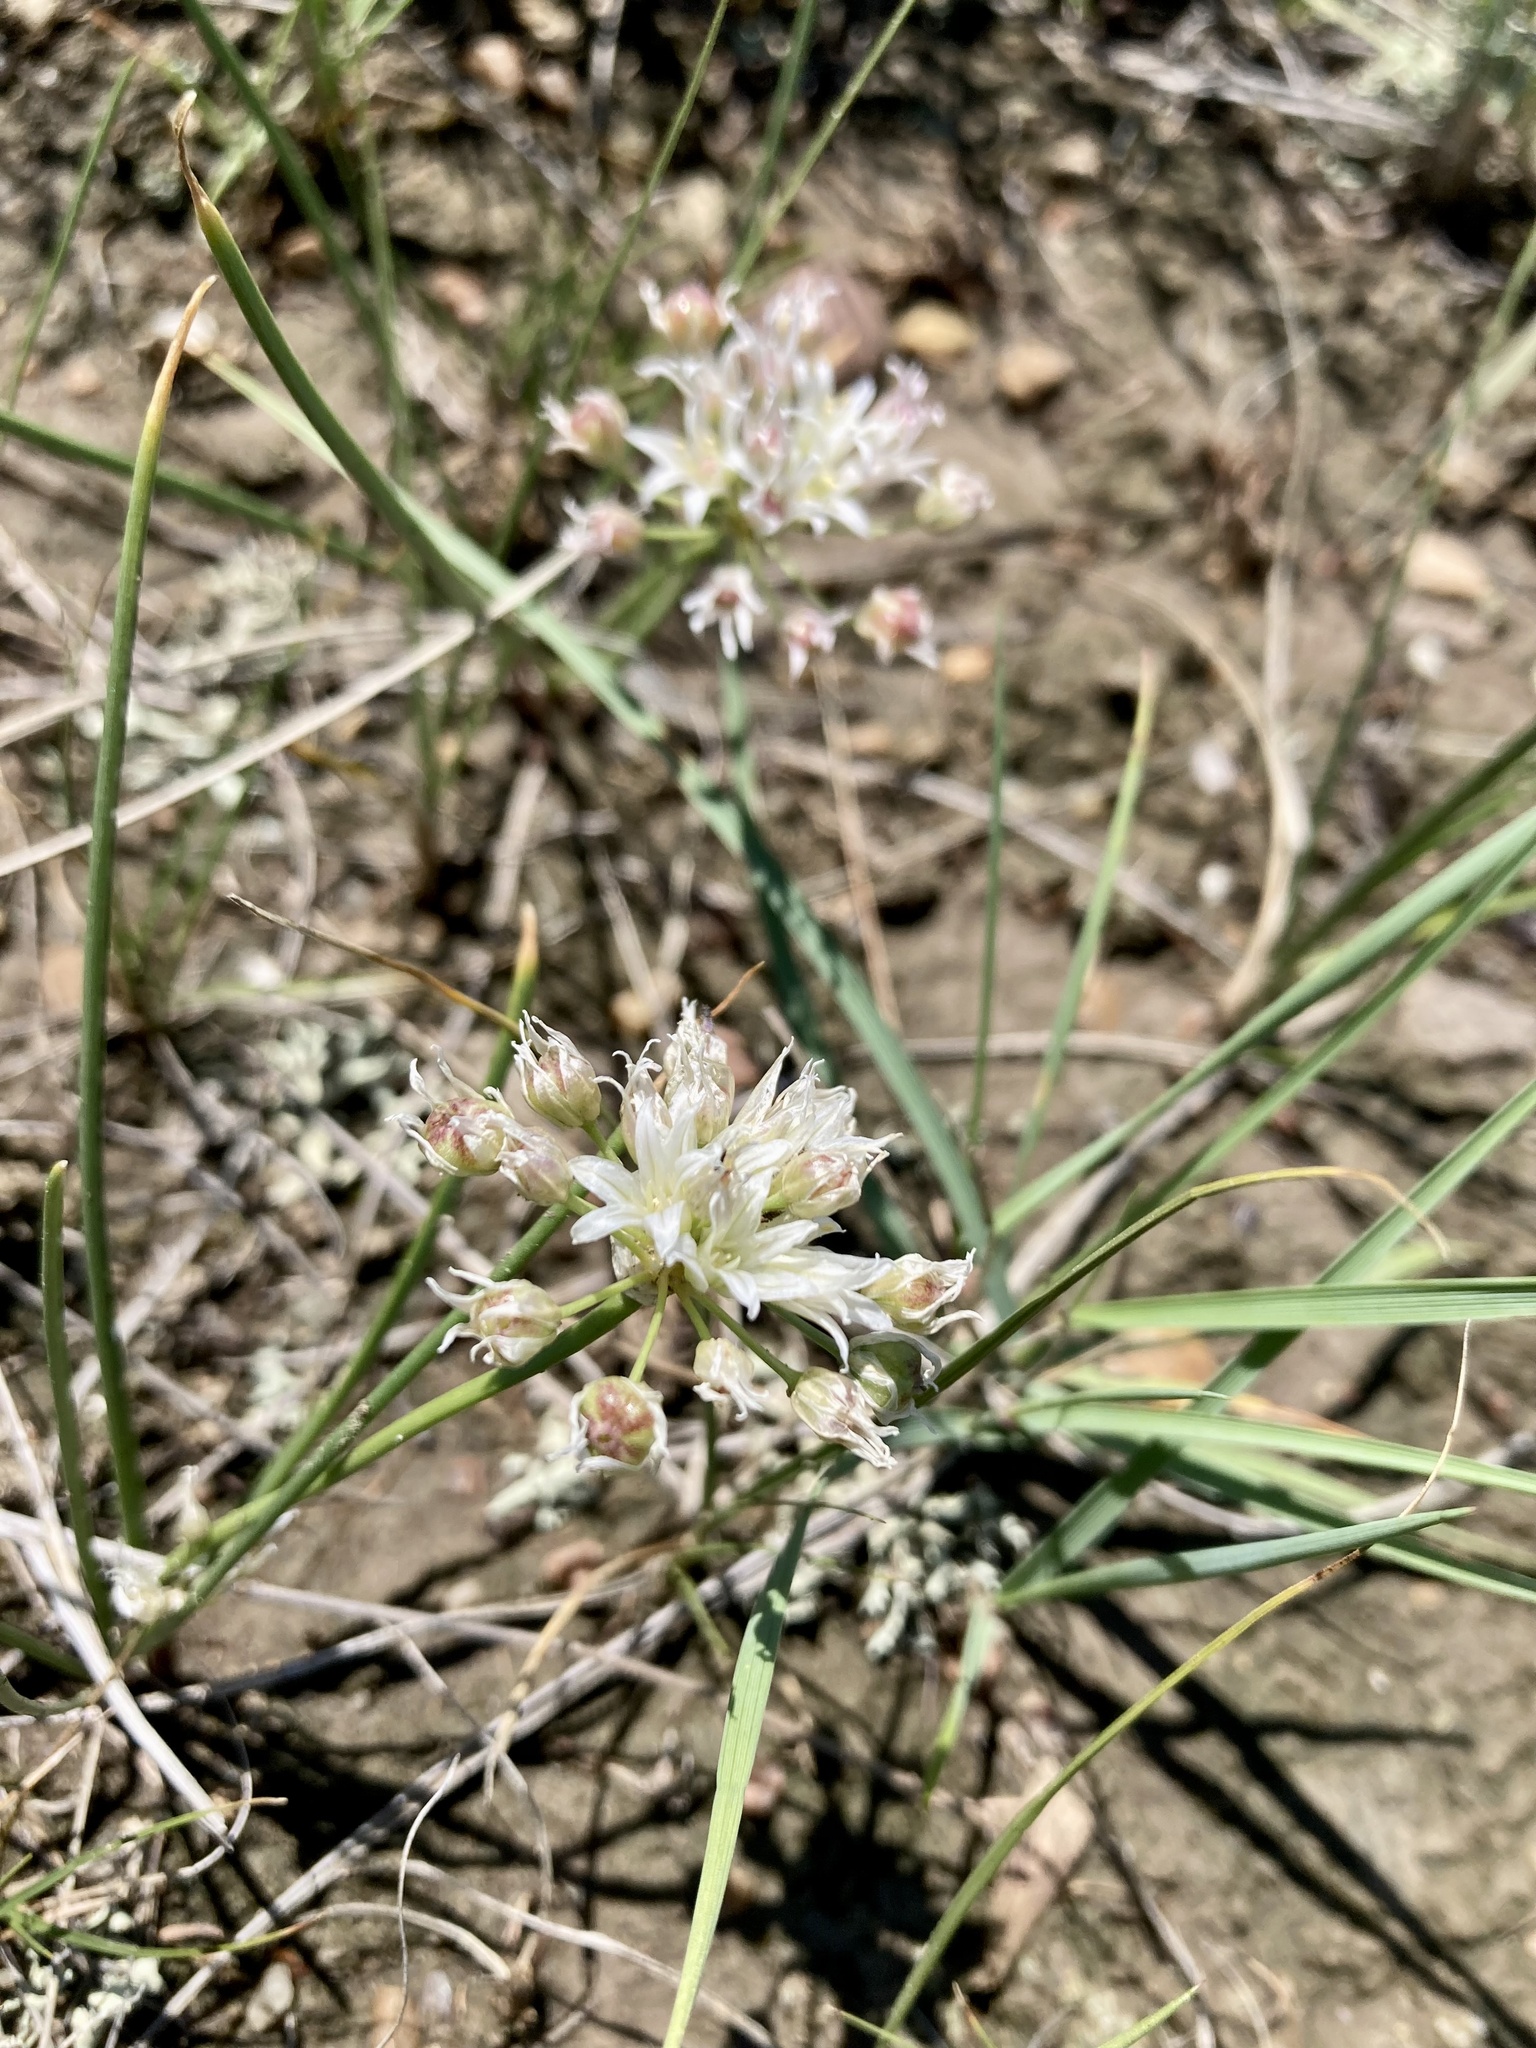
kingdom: Plantae
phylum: Tracheophyta
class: Liliopsida
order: Asparagales
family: Amaryllidaceae
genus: Allium
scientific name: Allium textile
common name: Prairie onion
